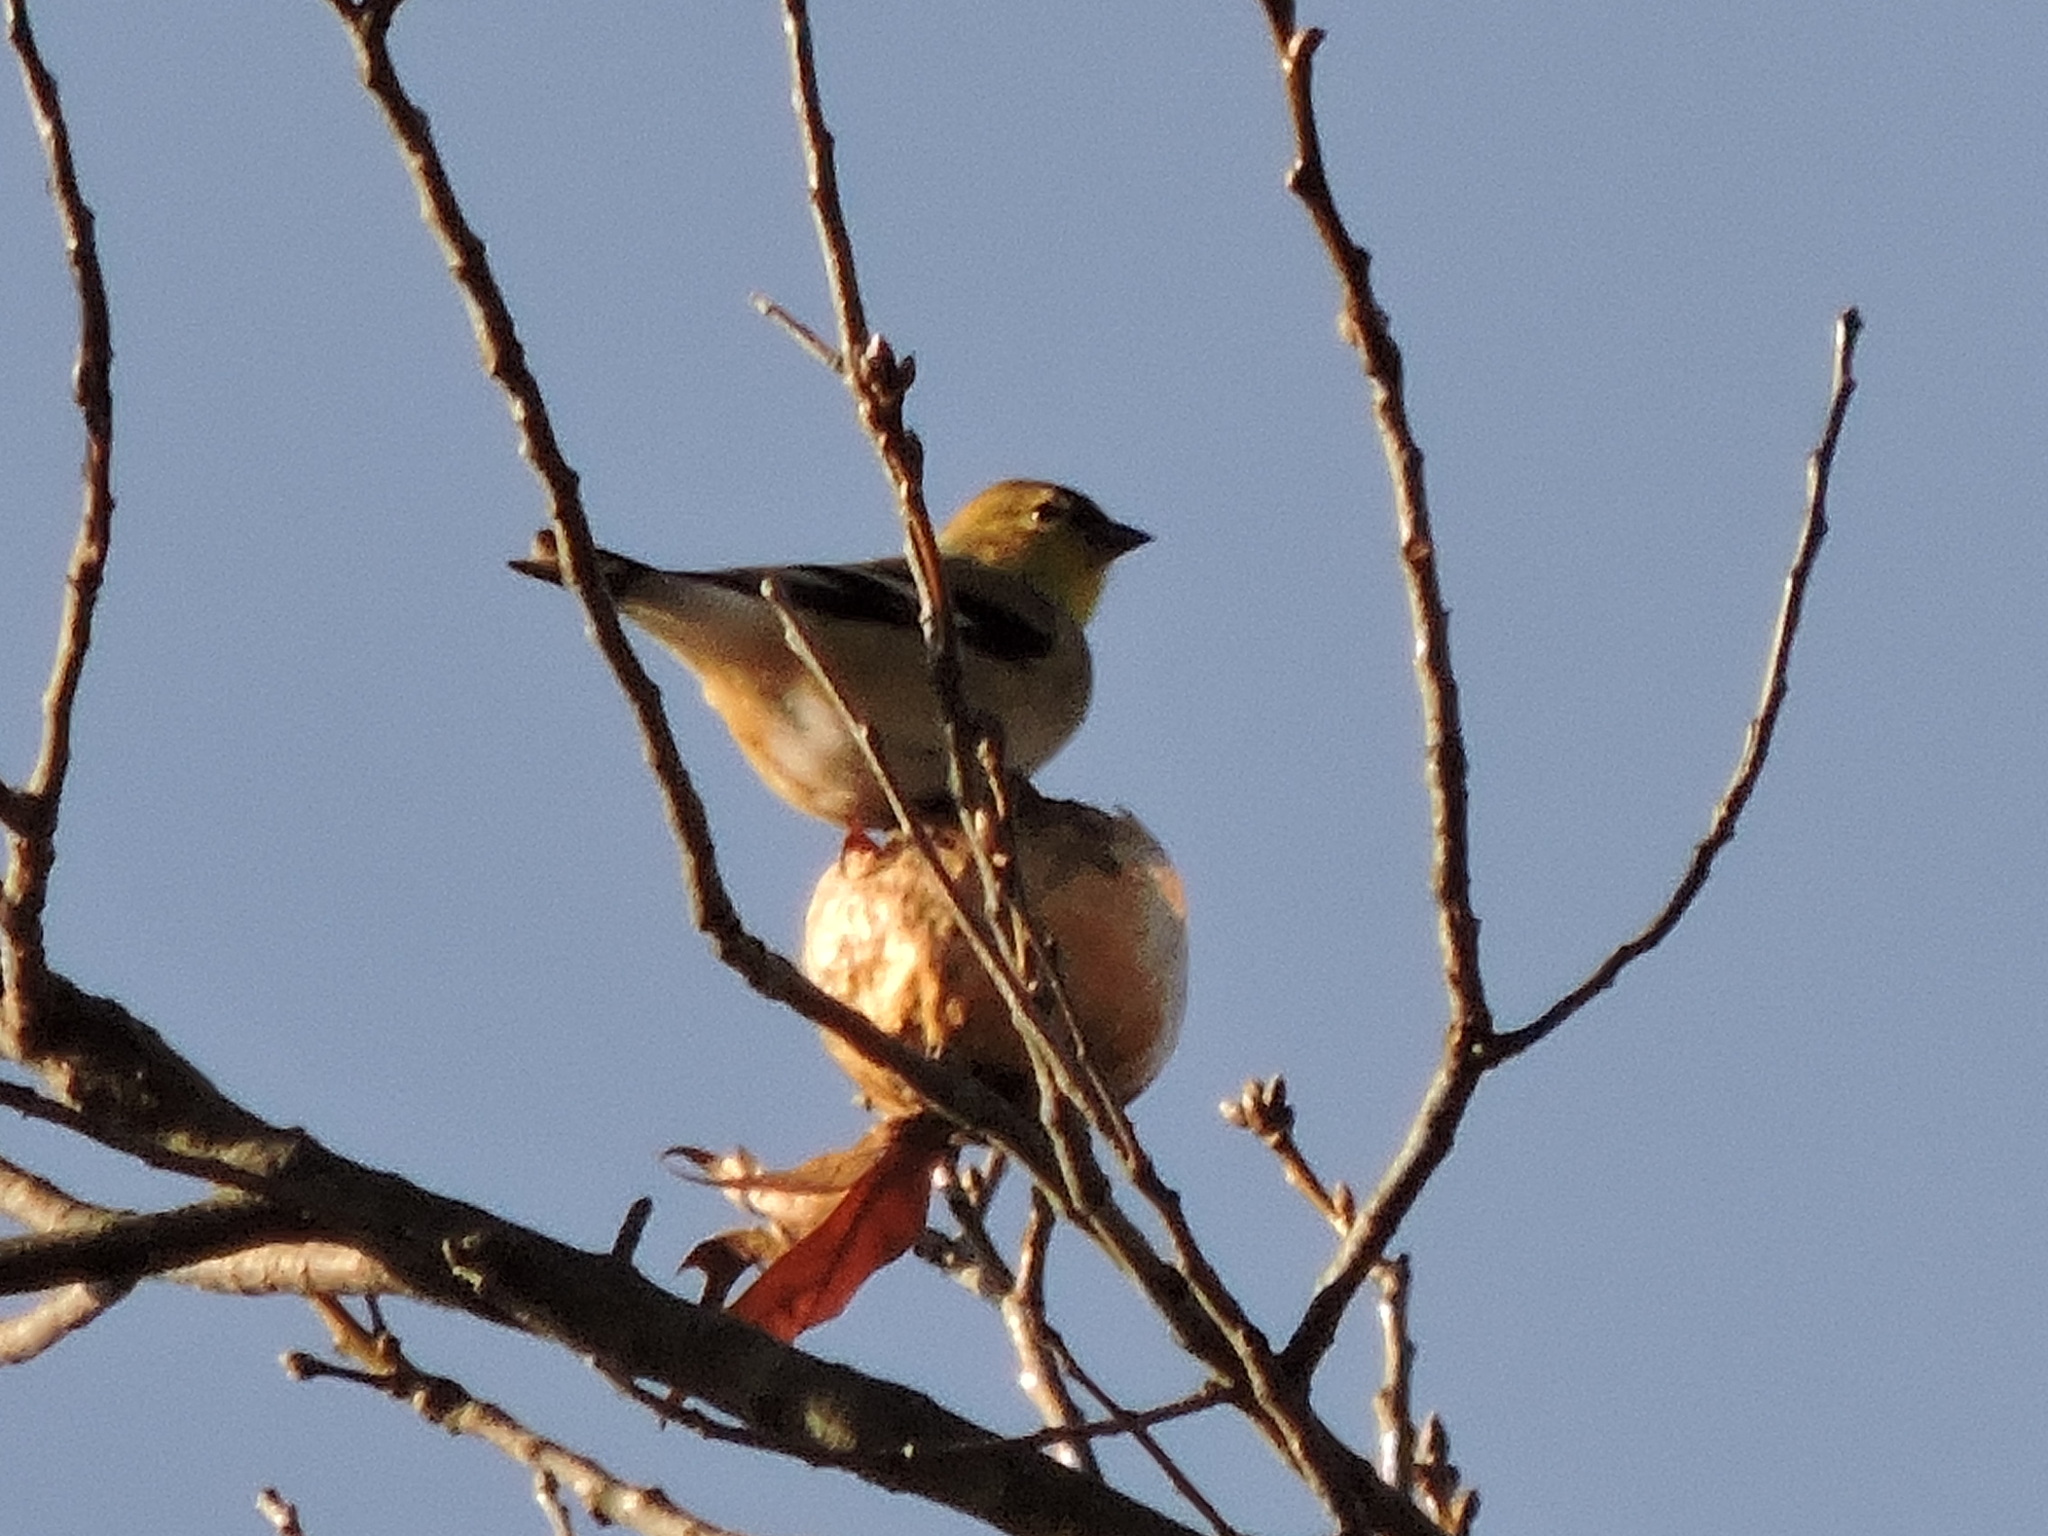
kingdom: Animalia
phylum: Chordata
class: Aves
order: Passeriformes
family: Fringillidae
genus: Spinus
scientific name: Spinus tristis
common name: American goldfinch
